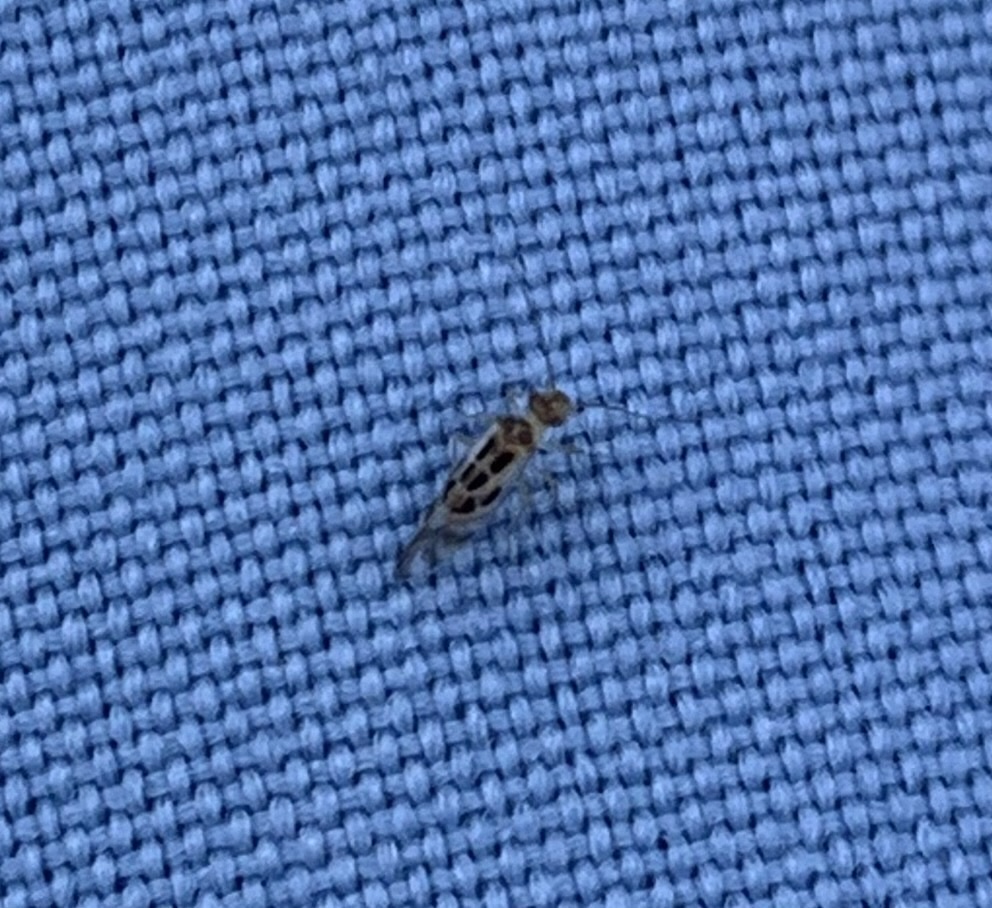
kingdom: Animalia
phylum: Arthropoda
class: Insecta
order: Psocodea
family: Stenopsocidae
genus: Graphopsocus
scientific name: Graphopsocus cruciatus
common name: Lizard bark louse
